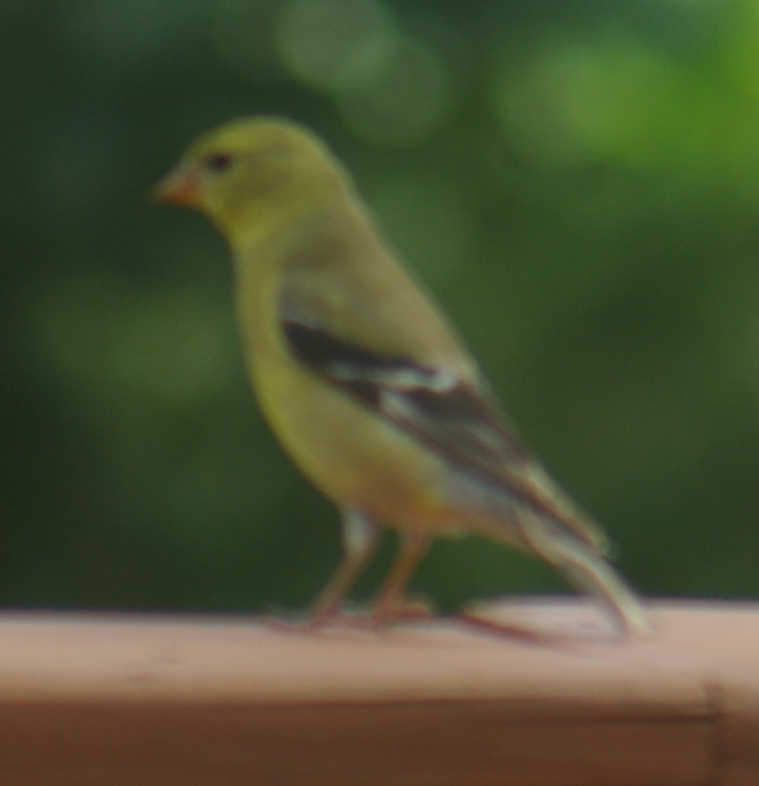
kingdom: Animalia
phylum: Chordata
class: Aves
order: Passeriformes
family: Fringillidae
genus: Spinus
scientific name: Spinus tristis
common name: American goldfinch
